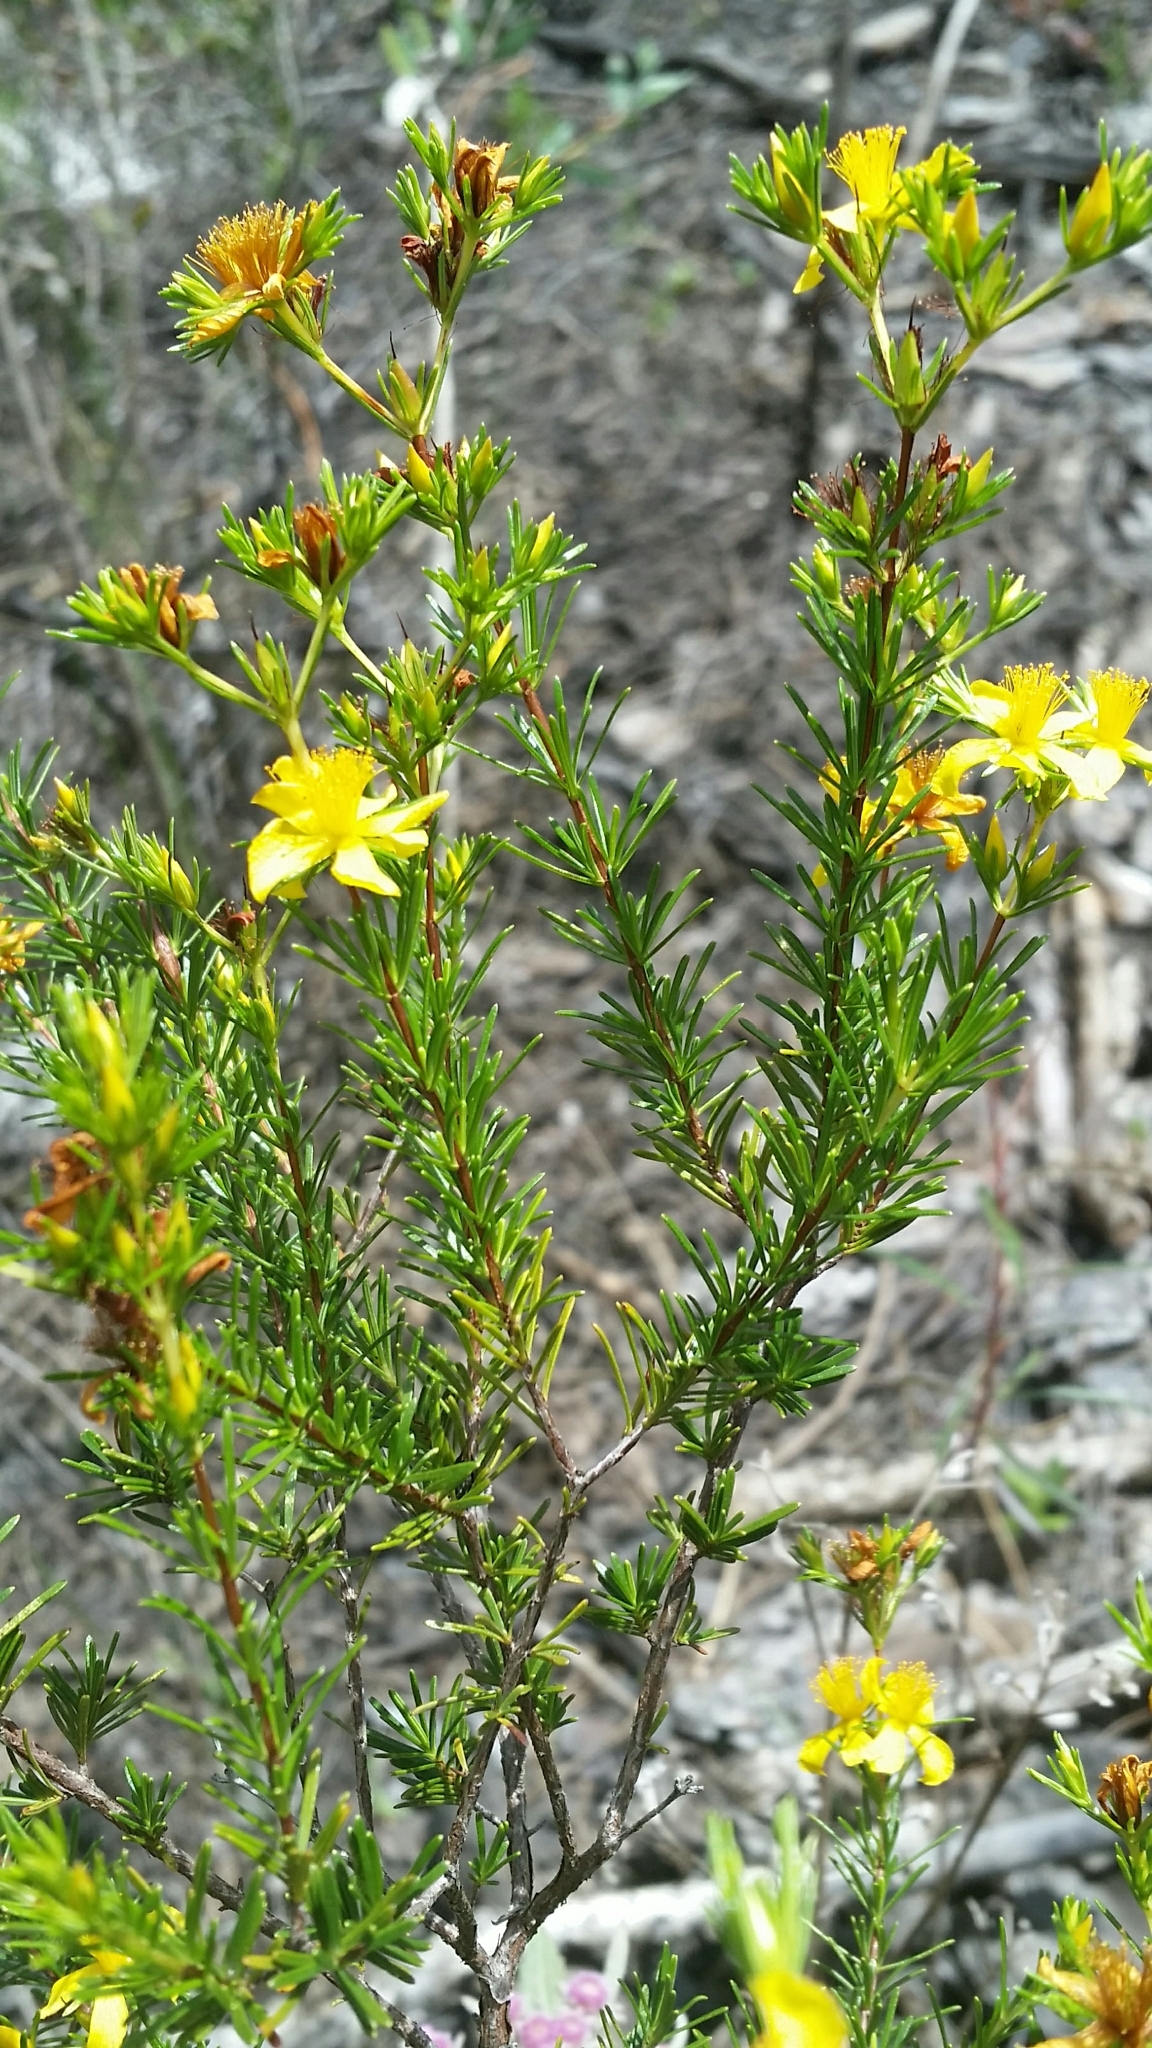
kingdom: Plantae
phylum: Tracheophyta
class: Magnoliopsida
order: Malpighiales
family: Hypericaceae
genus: Hypericum
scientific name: Hypericum fasciculatum
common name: Peelbark st. john's wort
